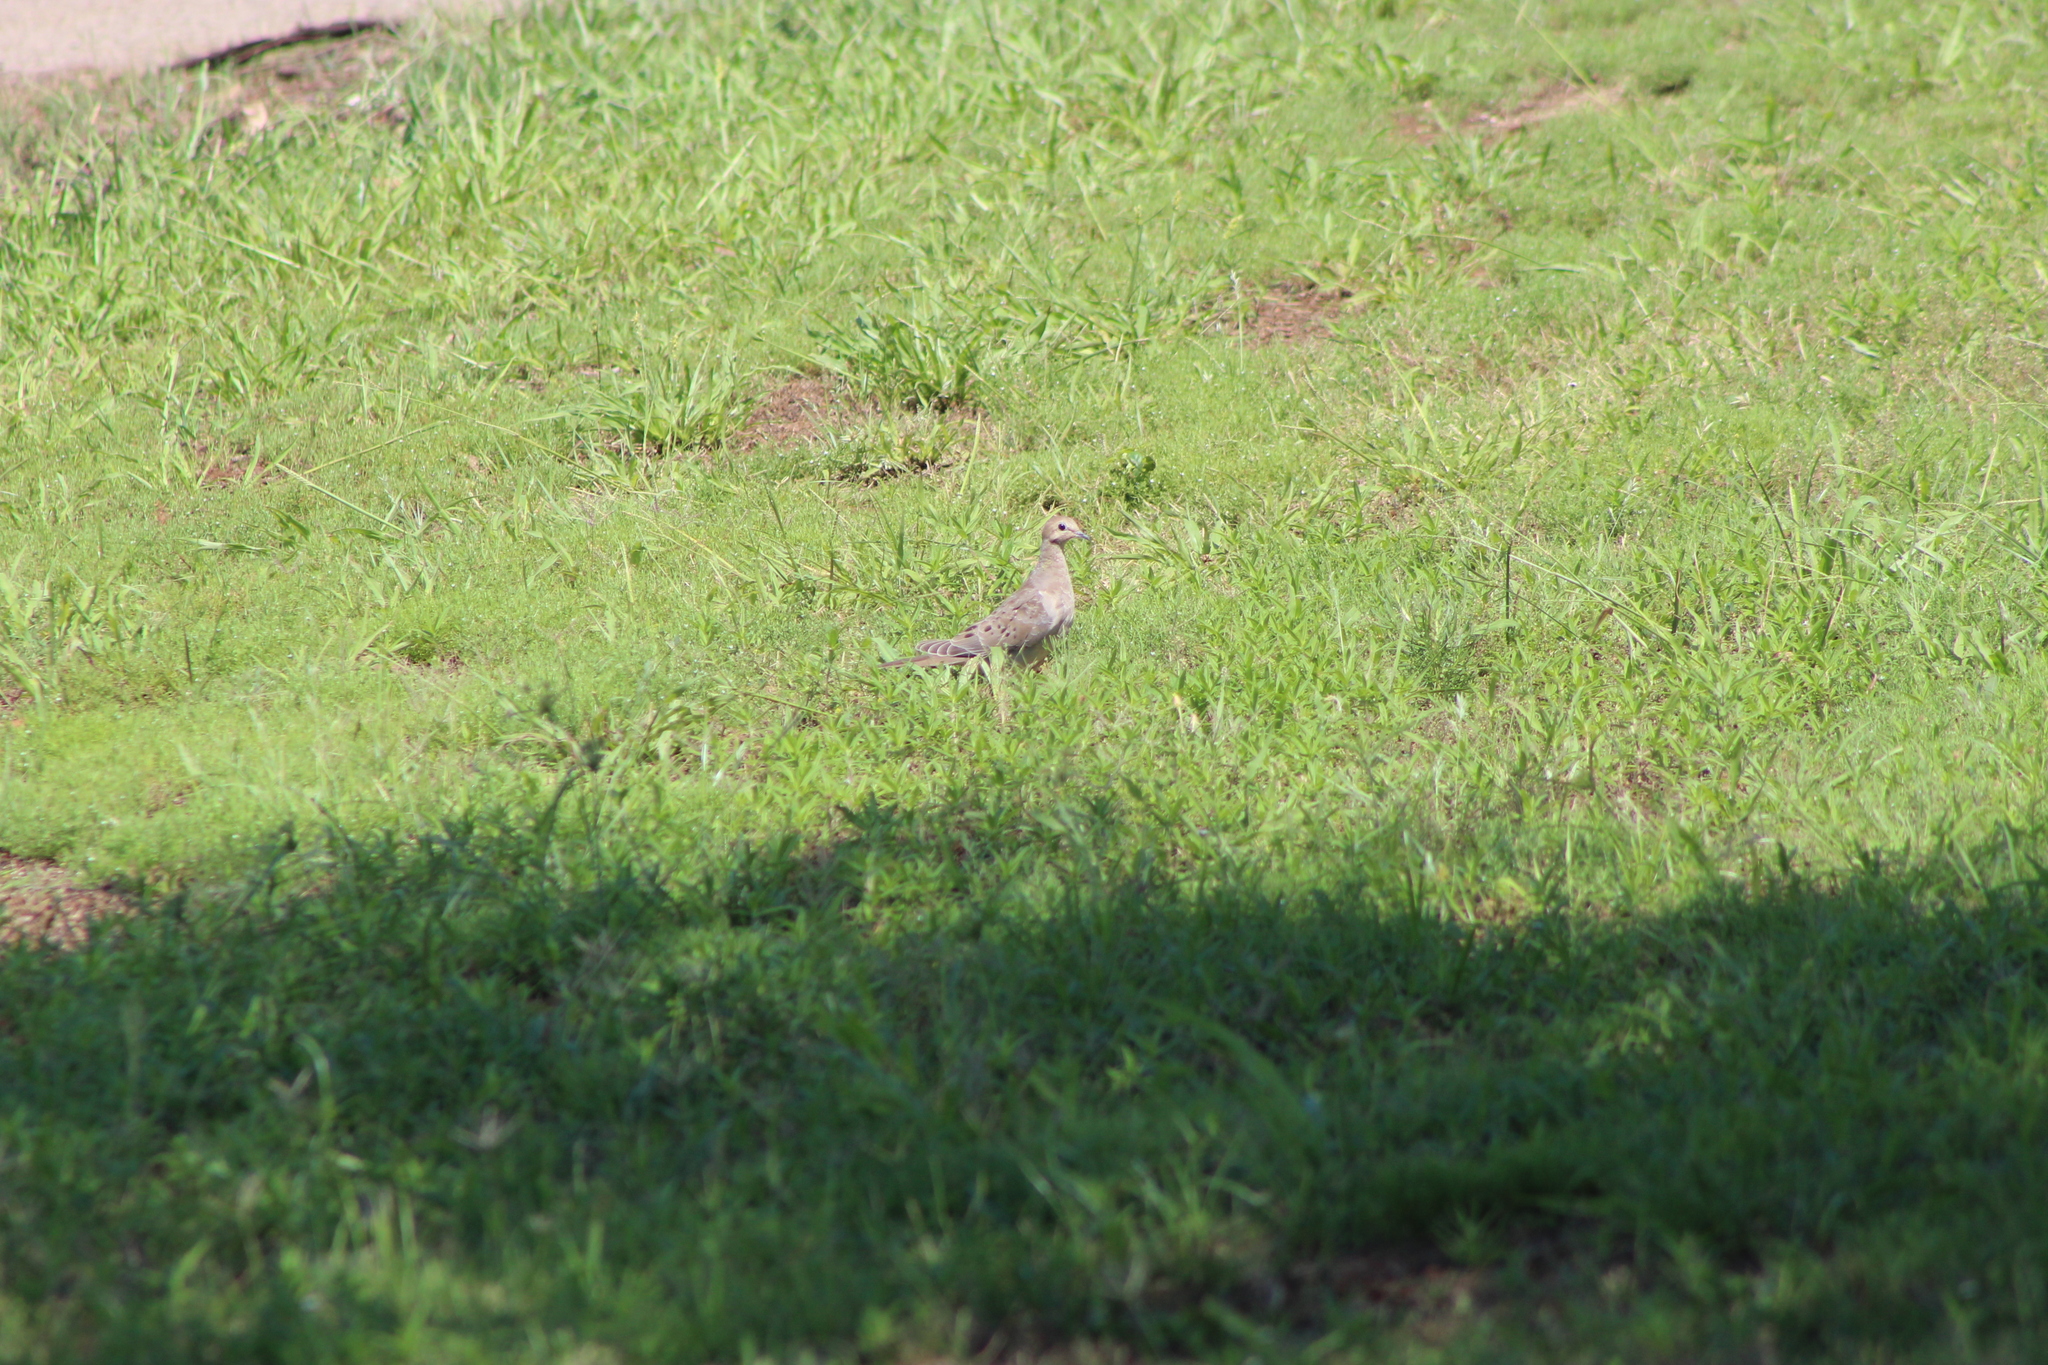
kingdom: Animalia
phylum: Chordata
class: Aves
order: Columbiformes
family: Columbidae
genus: Zenaida
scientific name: Zenaida macroura
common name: Mourning dove
